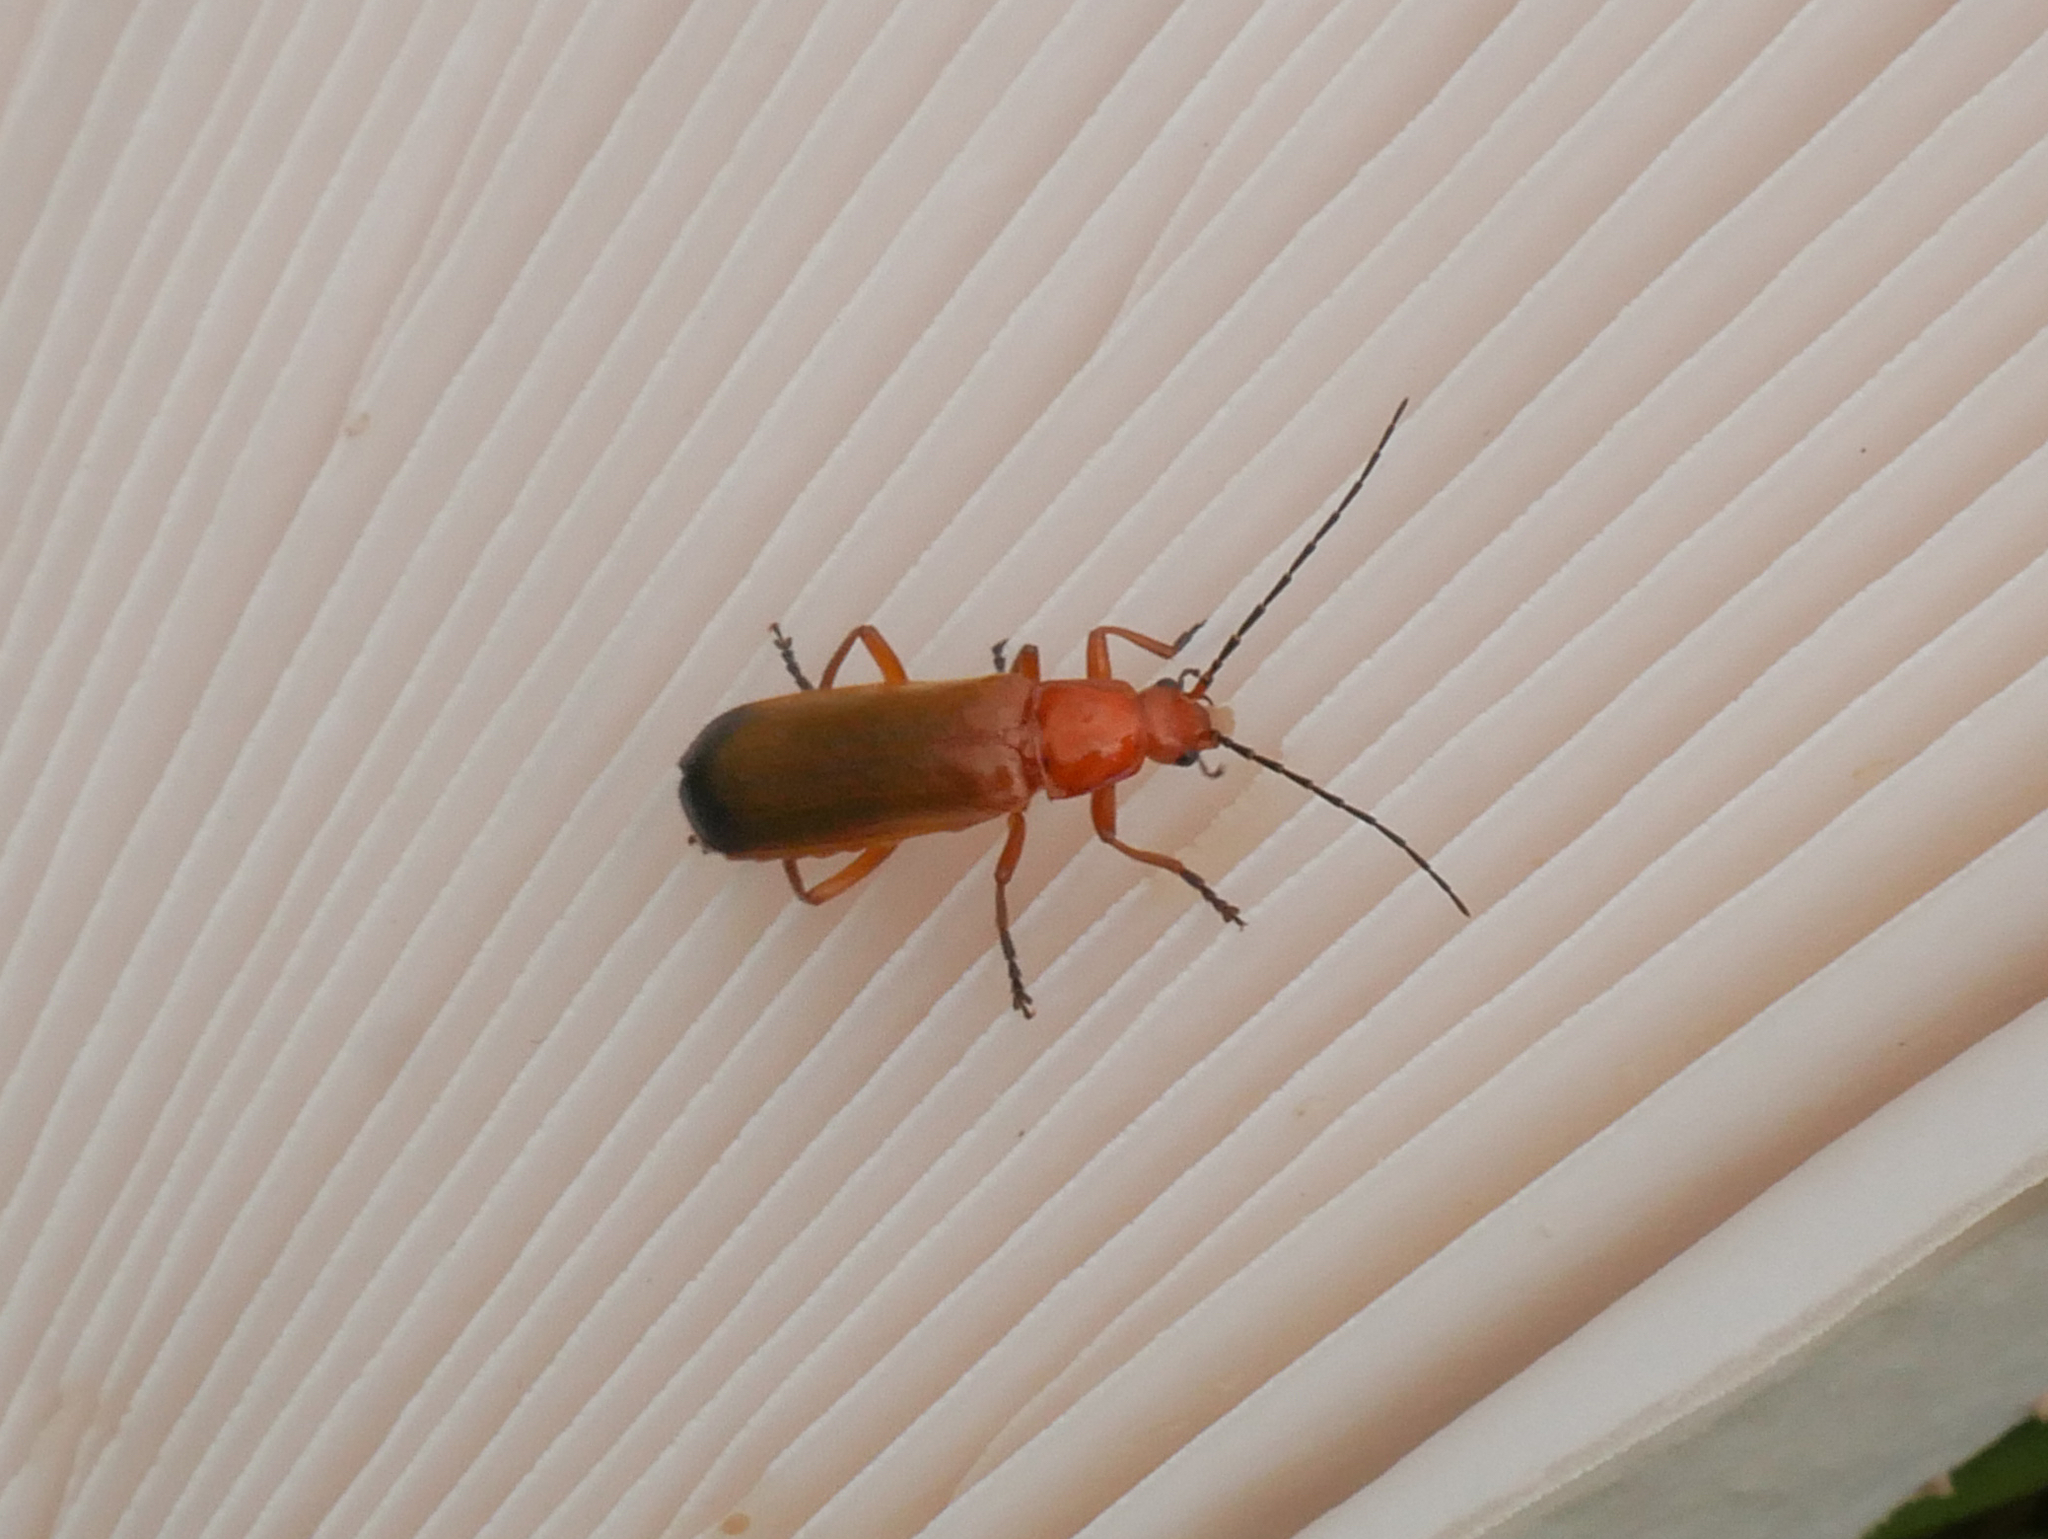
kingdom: Animalia
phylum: Arthropoda
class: Insecta
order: Coleoptera
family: Cantharidae
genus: Rhagonycha
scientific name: Rhagonycha fulva
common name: Common red soldier beetle
